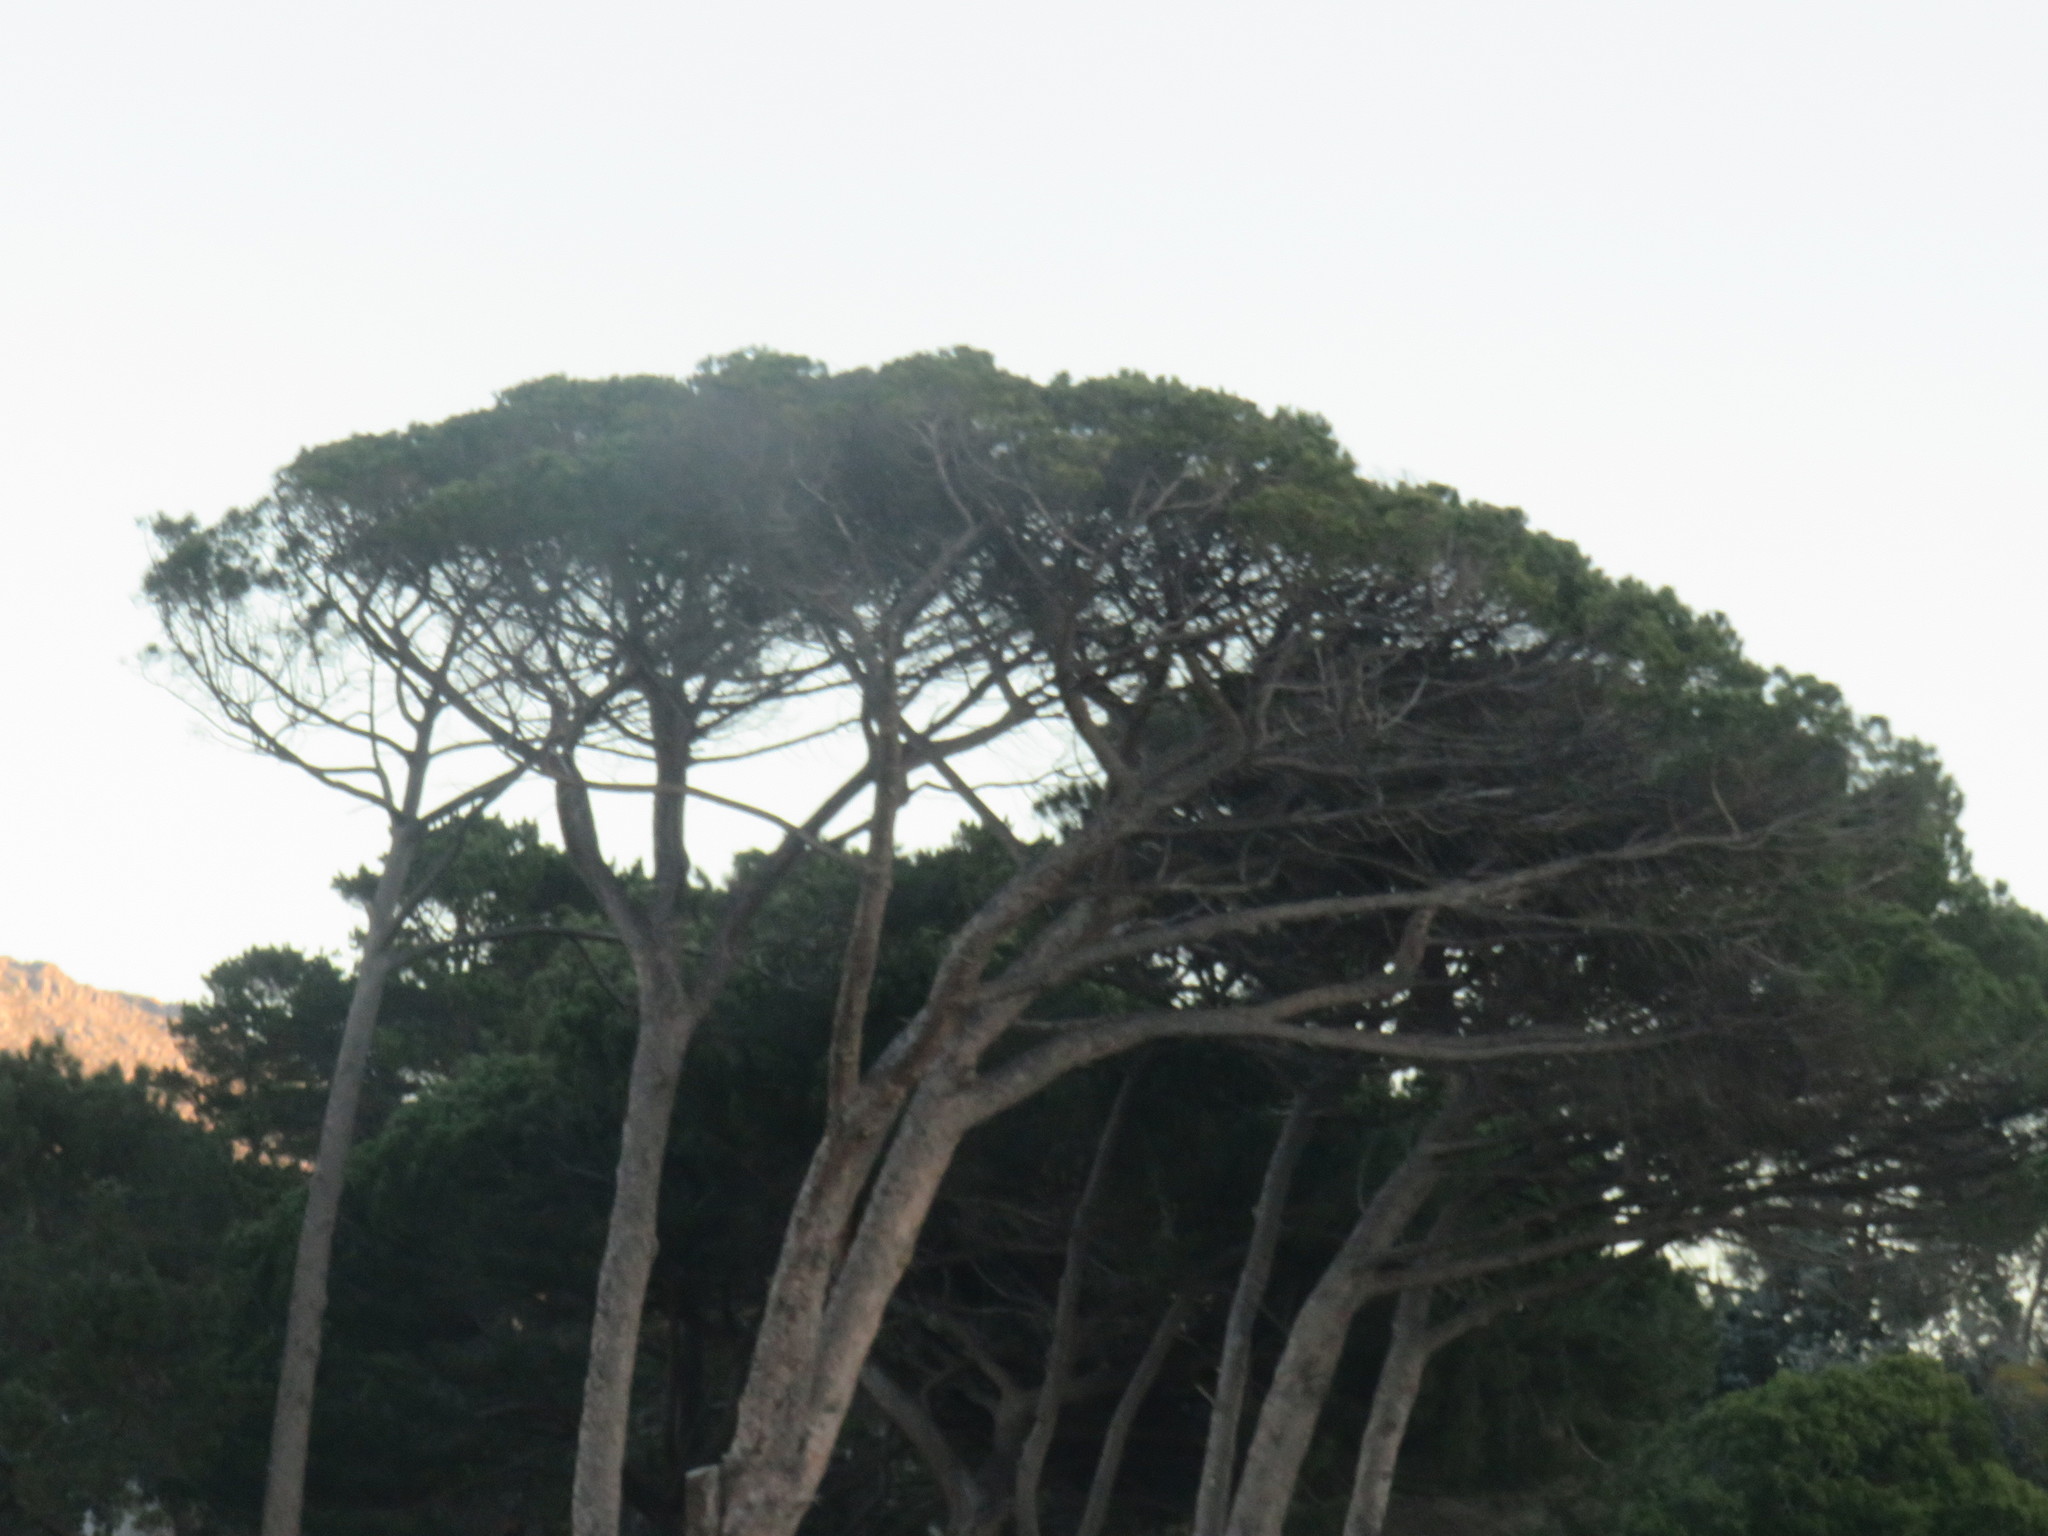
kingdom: Plantae
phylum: Tracheophyta
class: Pinopsida
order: Pinales
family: Pinaceae
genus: Pinus
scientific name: Pinus pinea
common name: Italian stone pine
